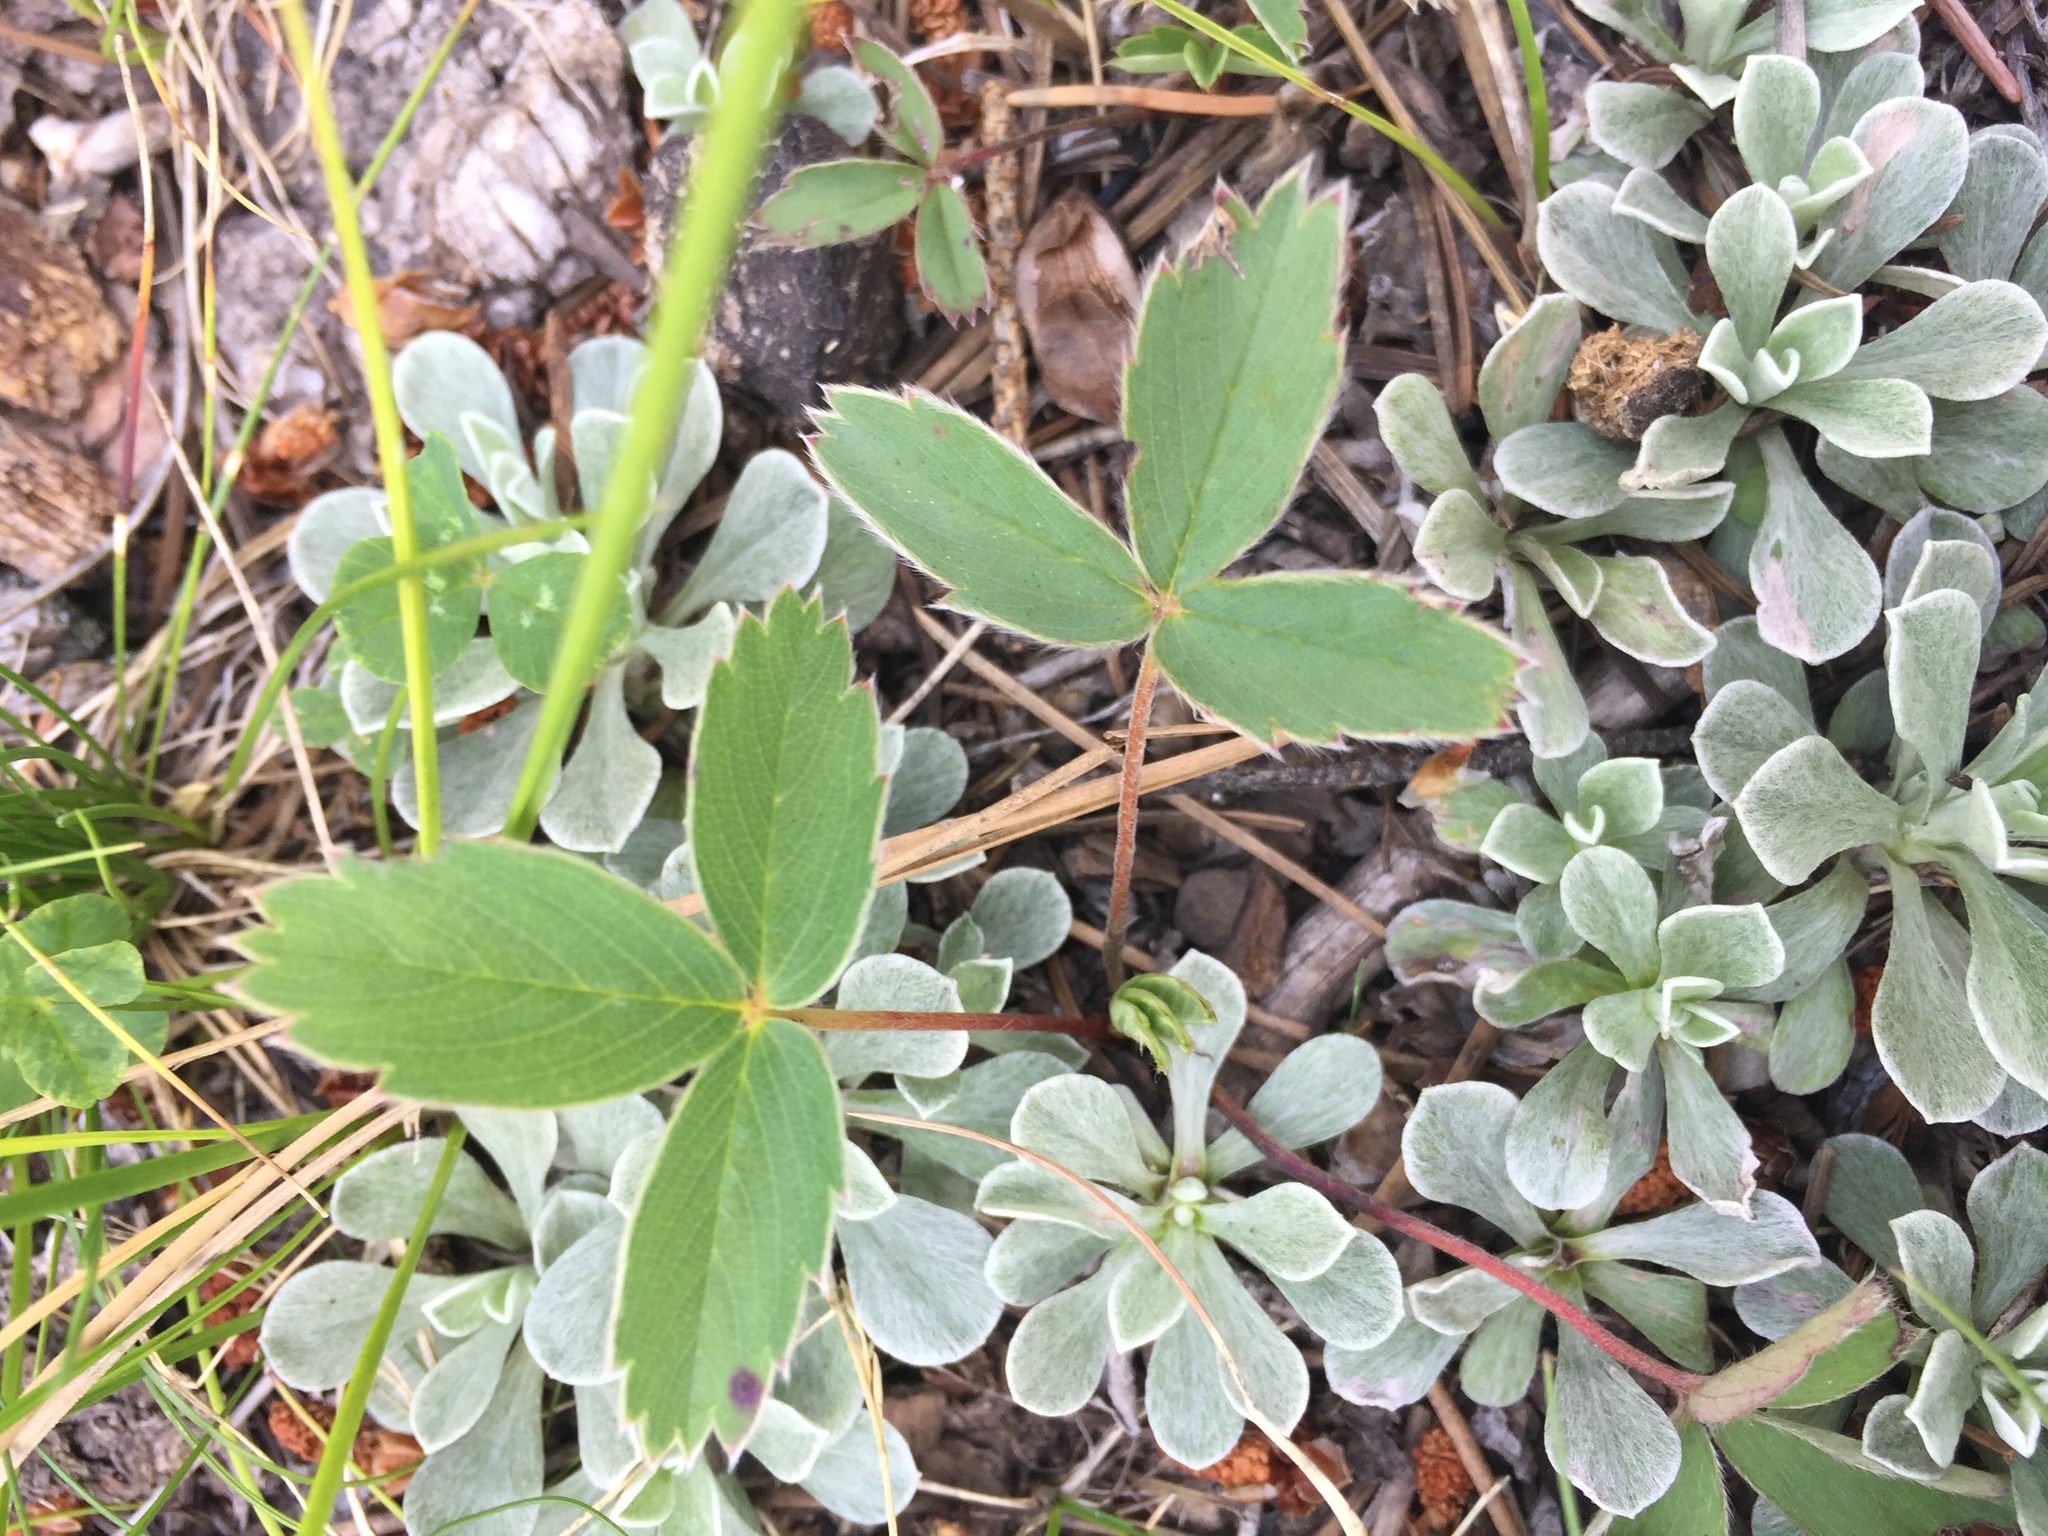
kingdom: Plantae
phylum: Tracheophyta
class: Magnoliopsida
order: Rosales
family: Rosaceae
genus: Fragaria
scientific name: Fragaria virginiana
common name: Thickleaved wild strawberry
